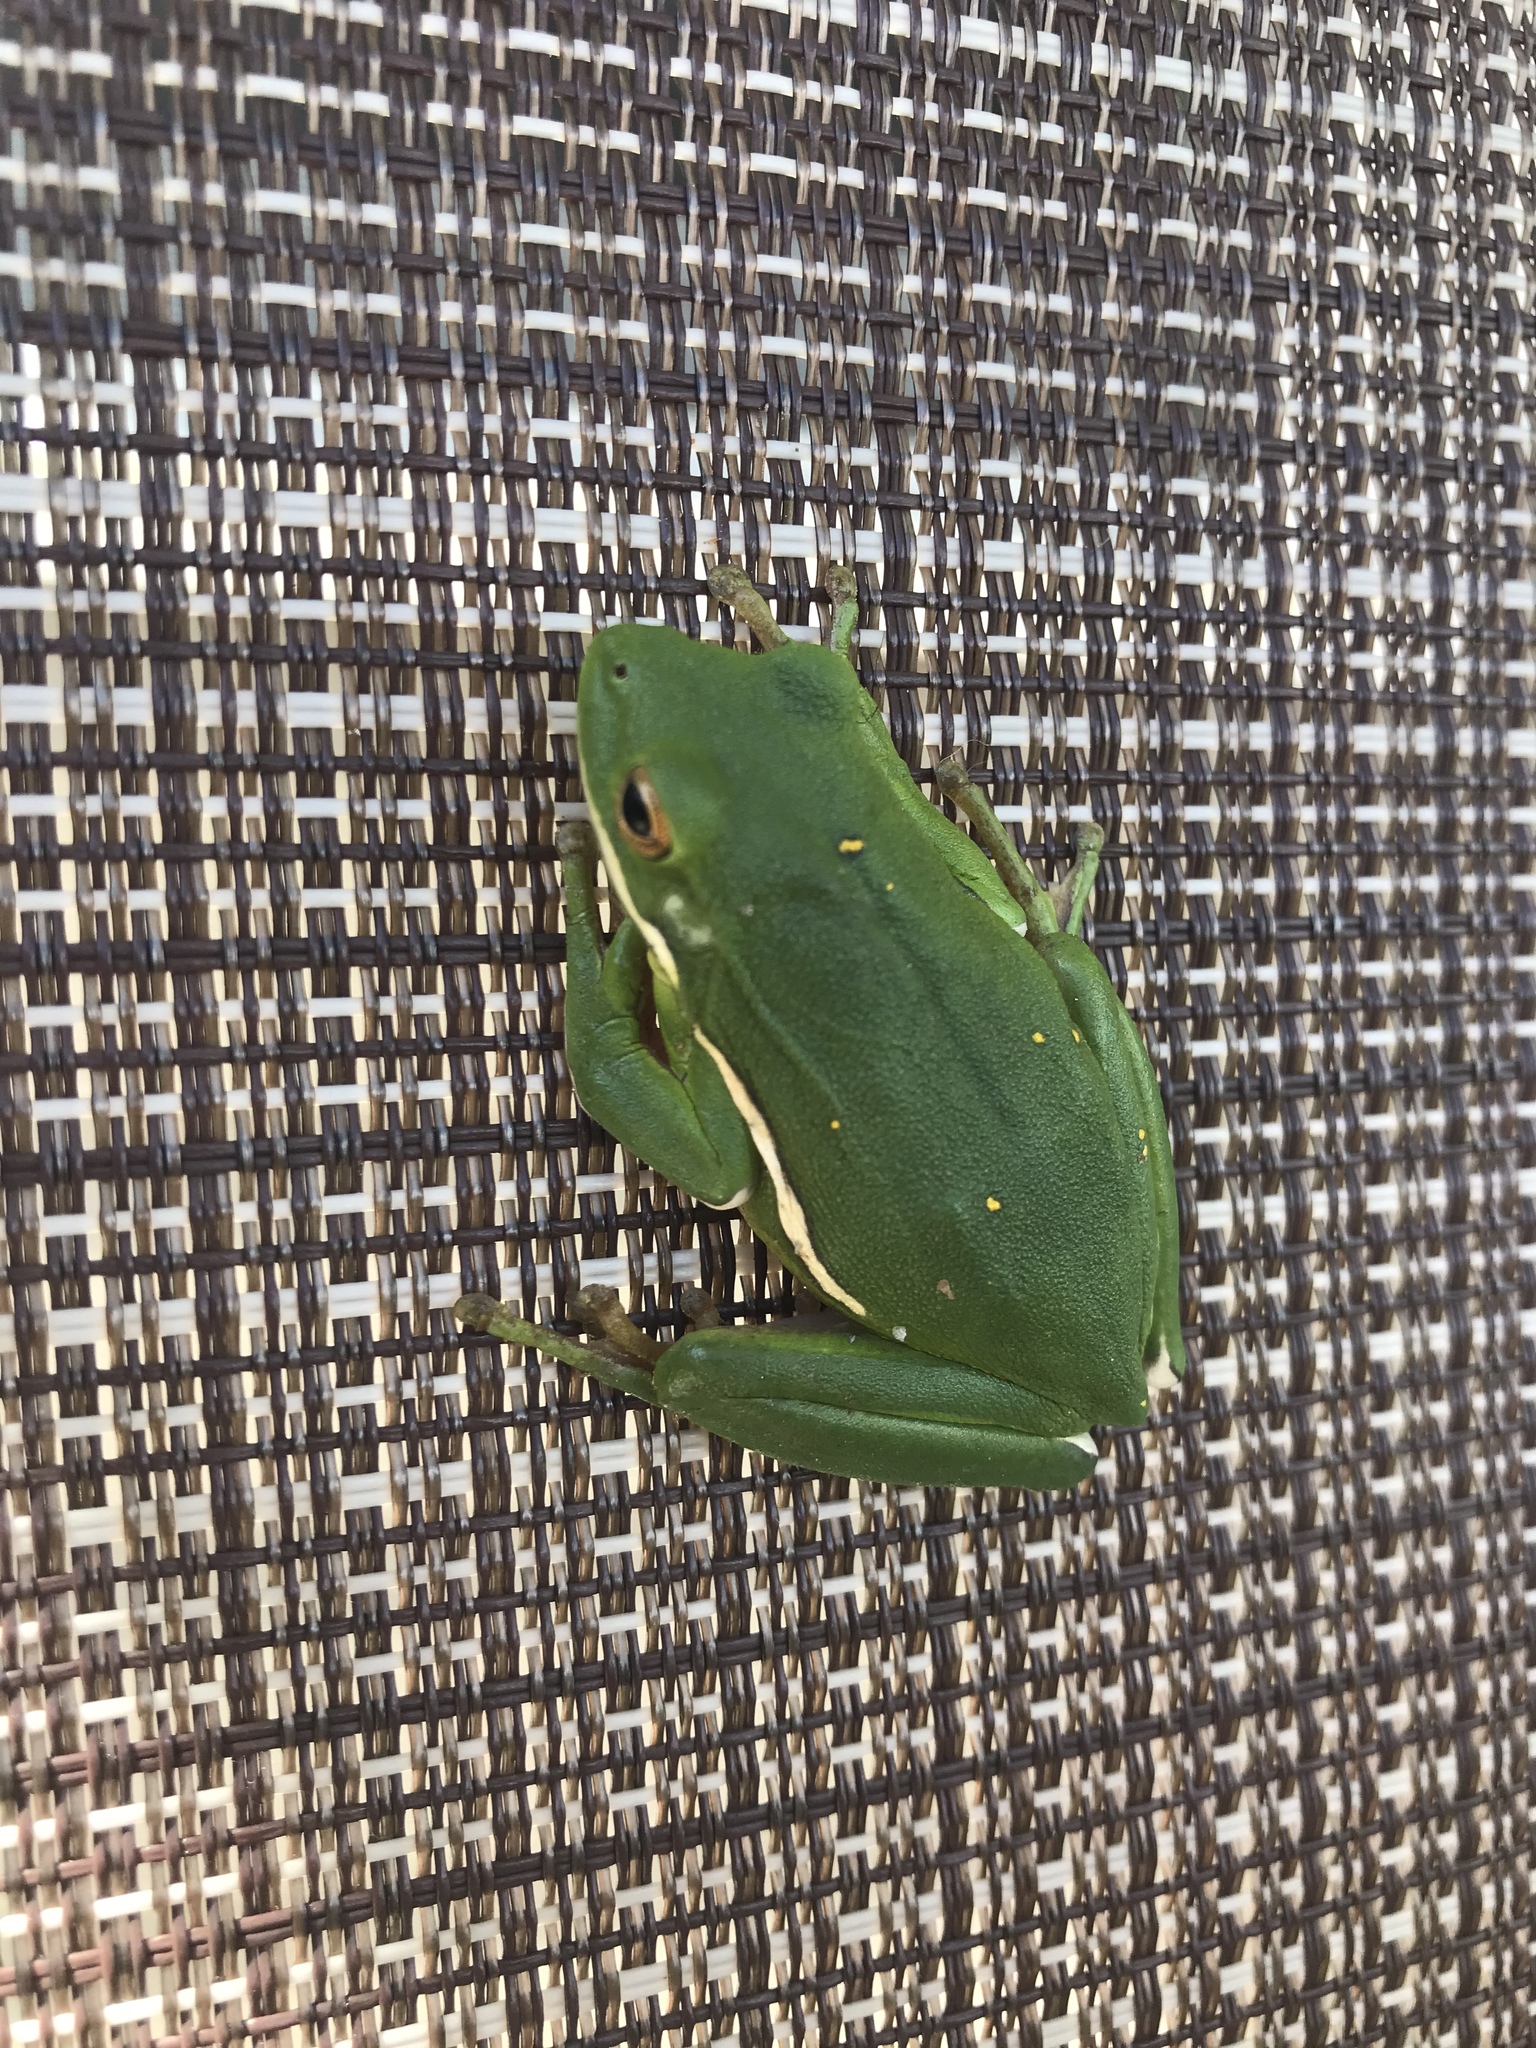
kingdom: Animalia
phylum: Chordata
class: Amphibia
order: Anura
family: Hylidae
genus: Dryophytes
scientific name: Dryophytes cinereus
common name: Green treefrog
